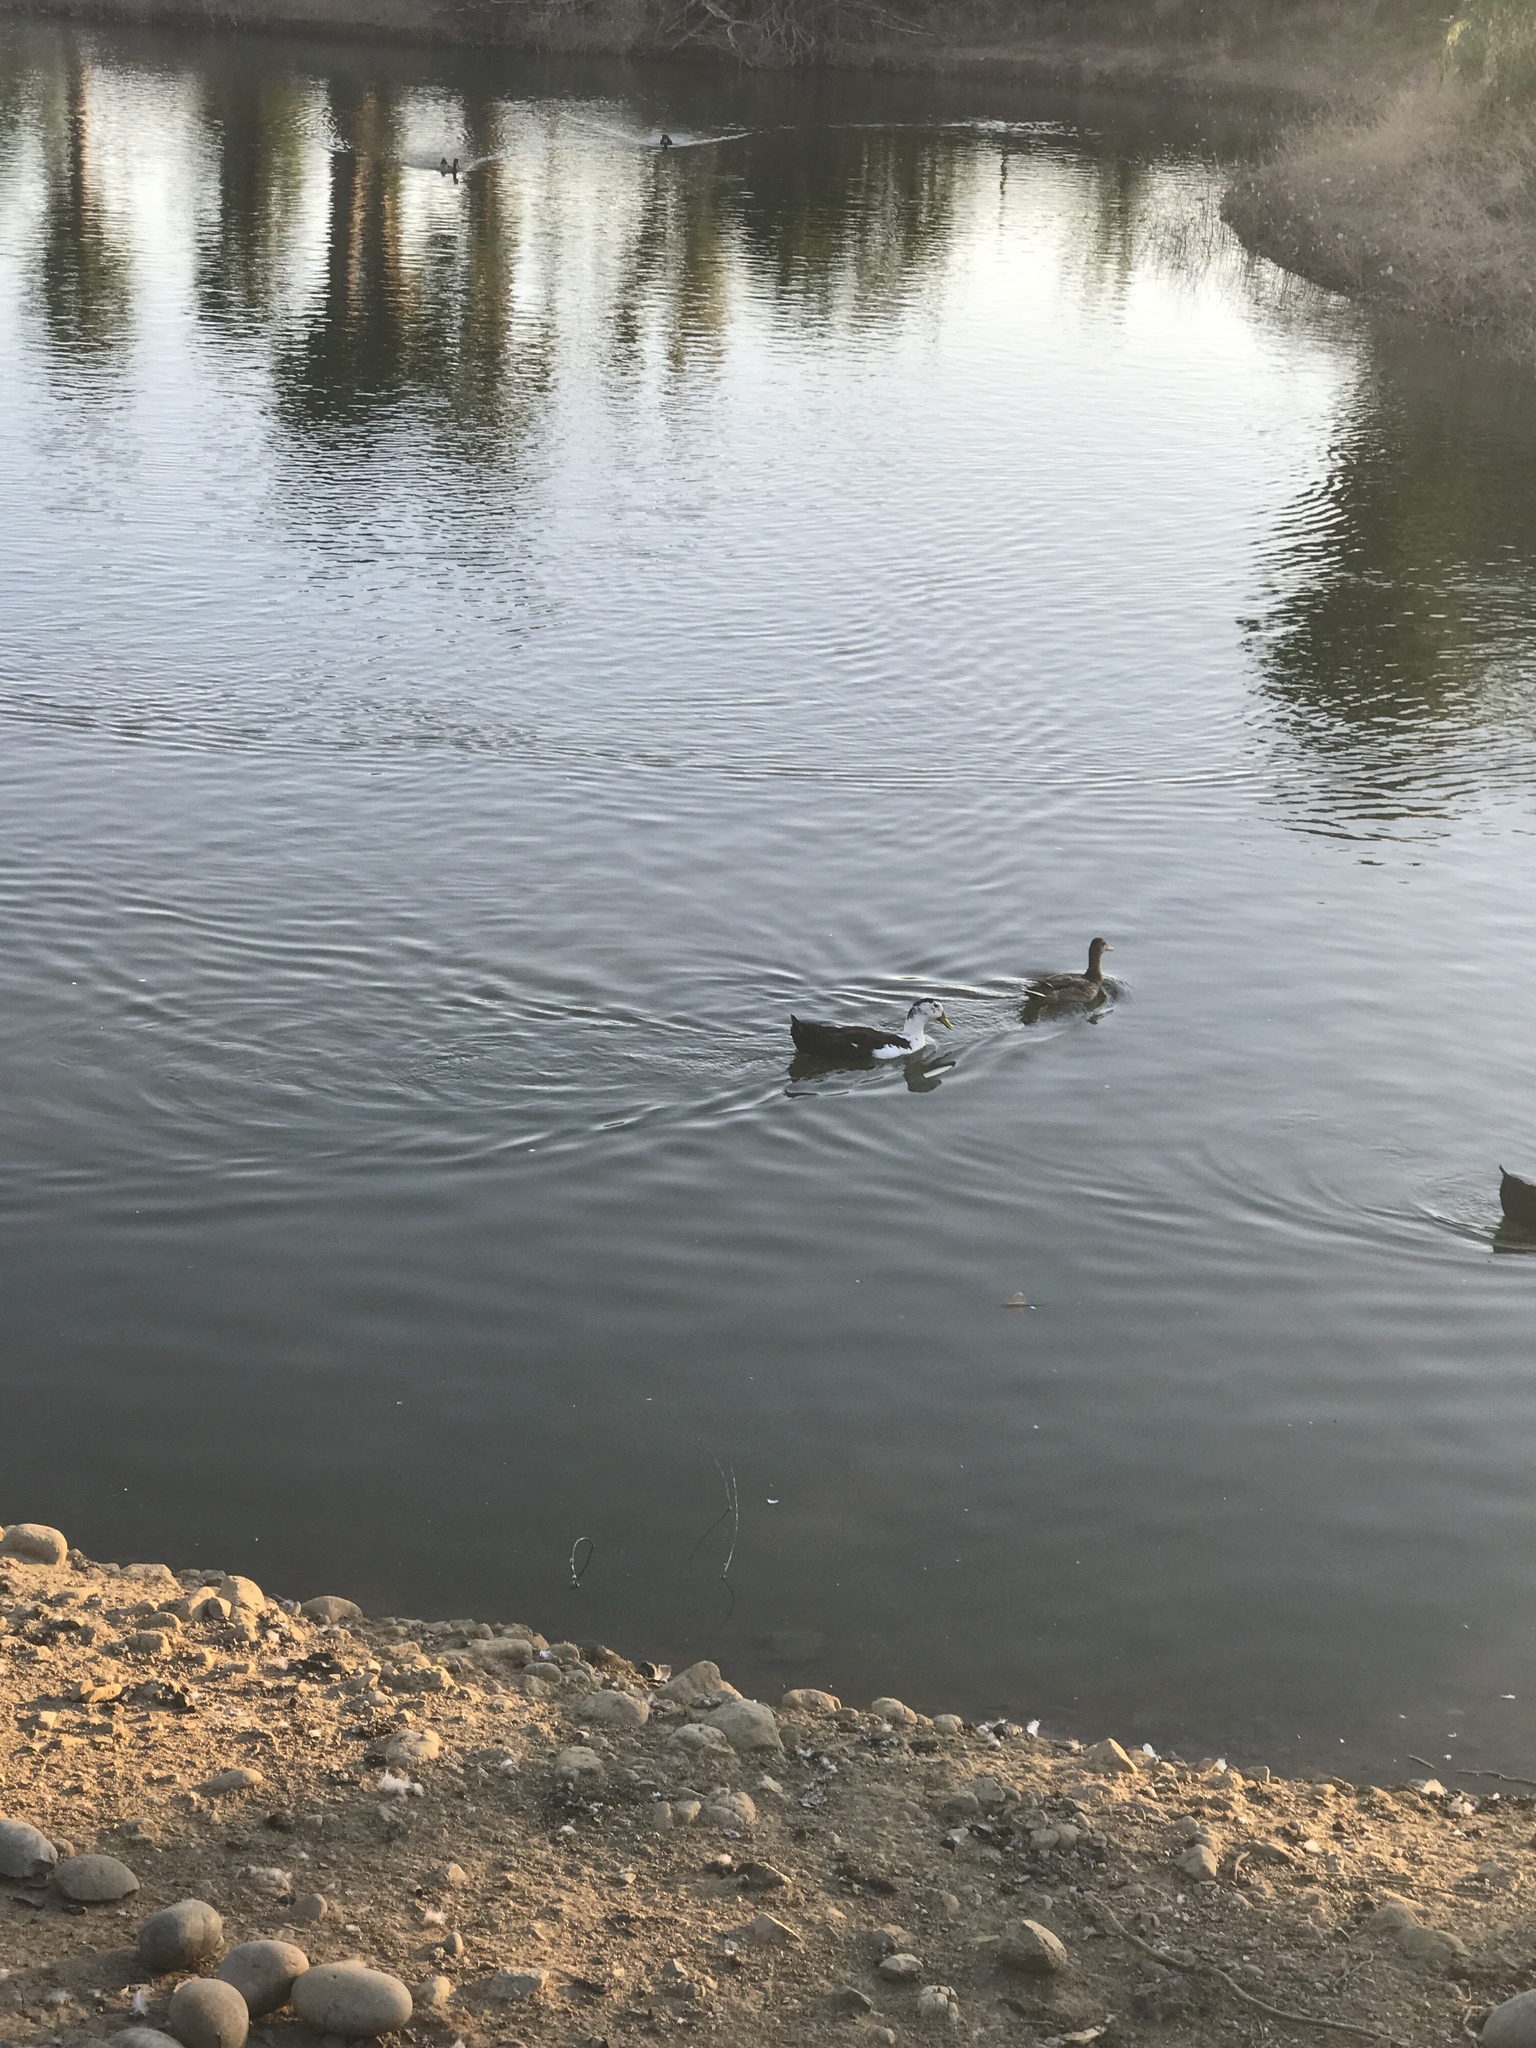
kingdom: Animalia
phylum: Chordata
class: Aves
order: Anseriformes
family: Anatidae
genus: Anas
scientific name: Anas platyrhynchos
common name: Mallard
